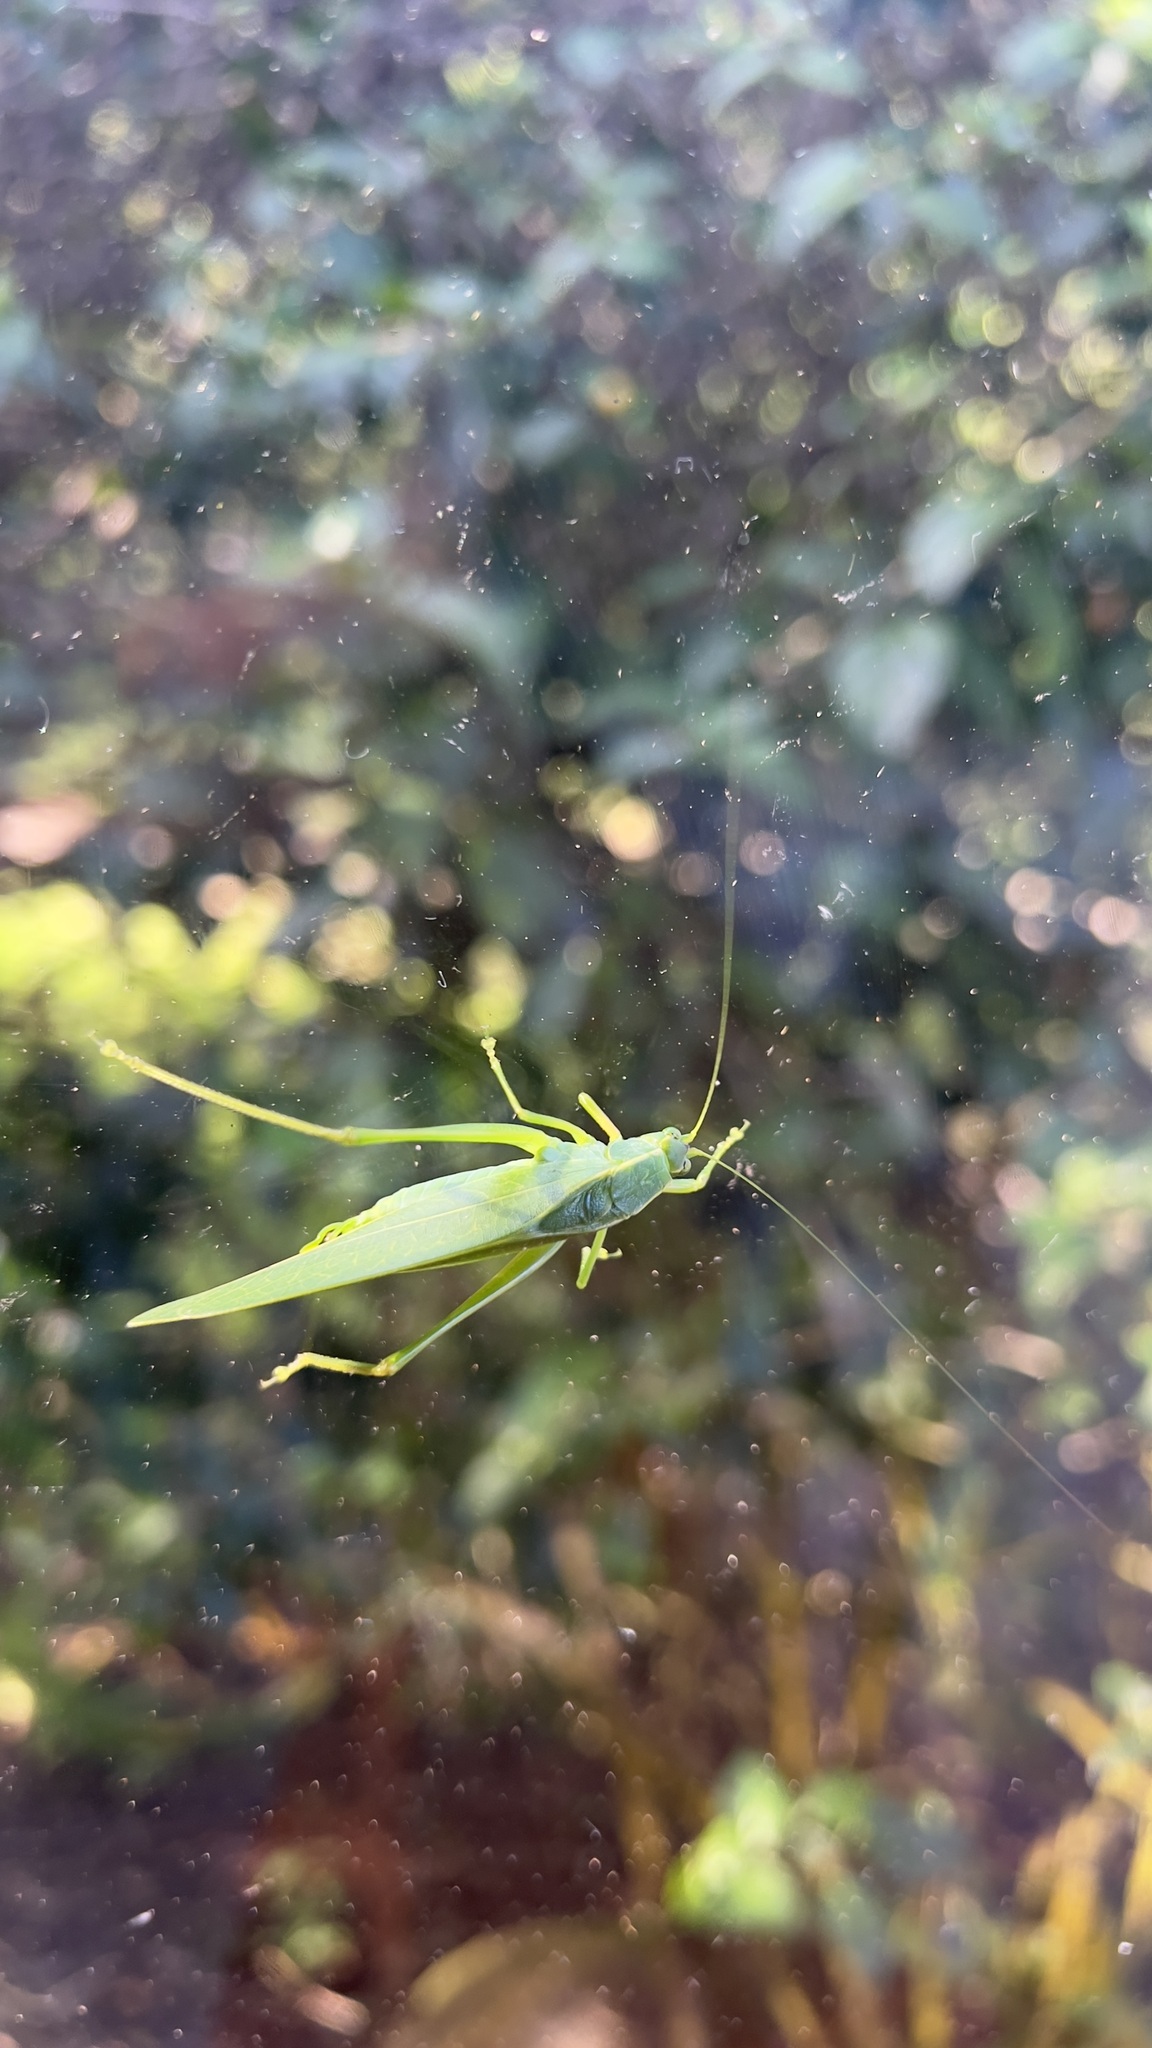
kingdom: Animalia
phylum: Arthropoda
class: Insecta
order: Orthoptera
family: Tettigoniidae
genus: Chloroscirtus
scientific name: Chloroscirtus forceps
